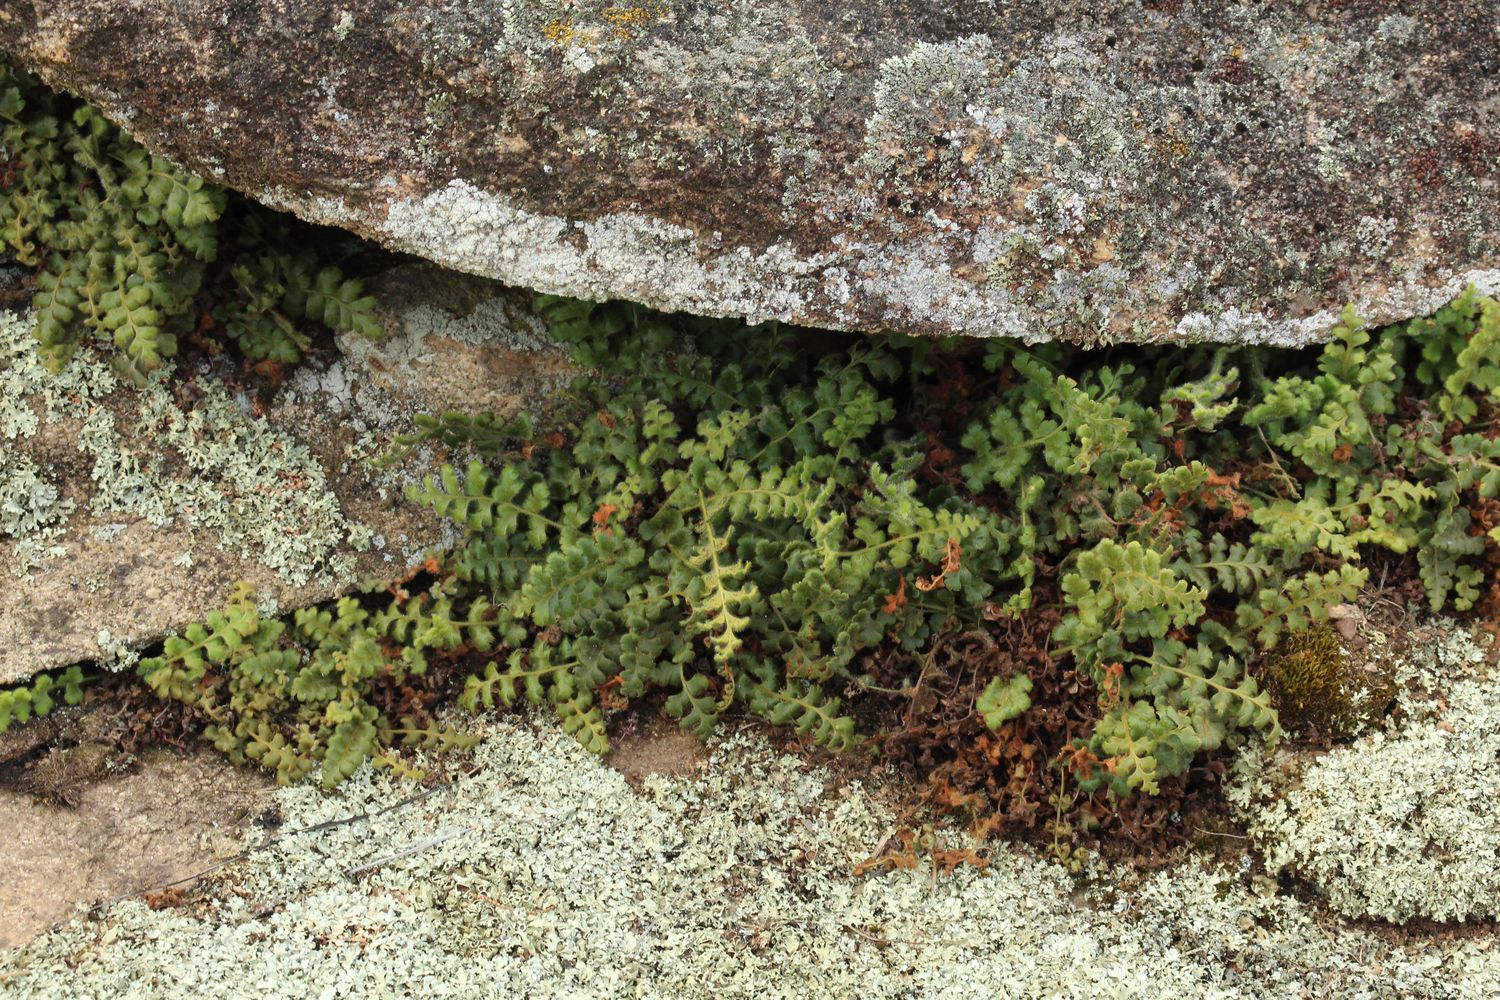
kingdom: Plantae
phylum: Tracheophyta
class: Polypodiopsida
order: Polypodiales
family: Aspleniaceae
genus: Asplenium
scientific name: Asplenium subglandulosum
